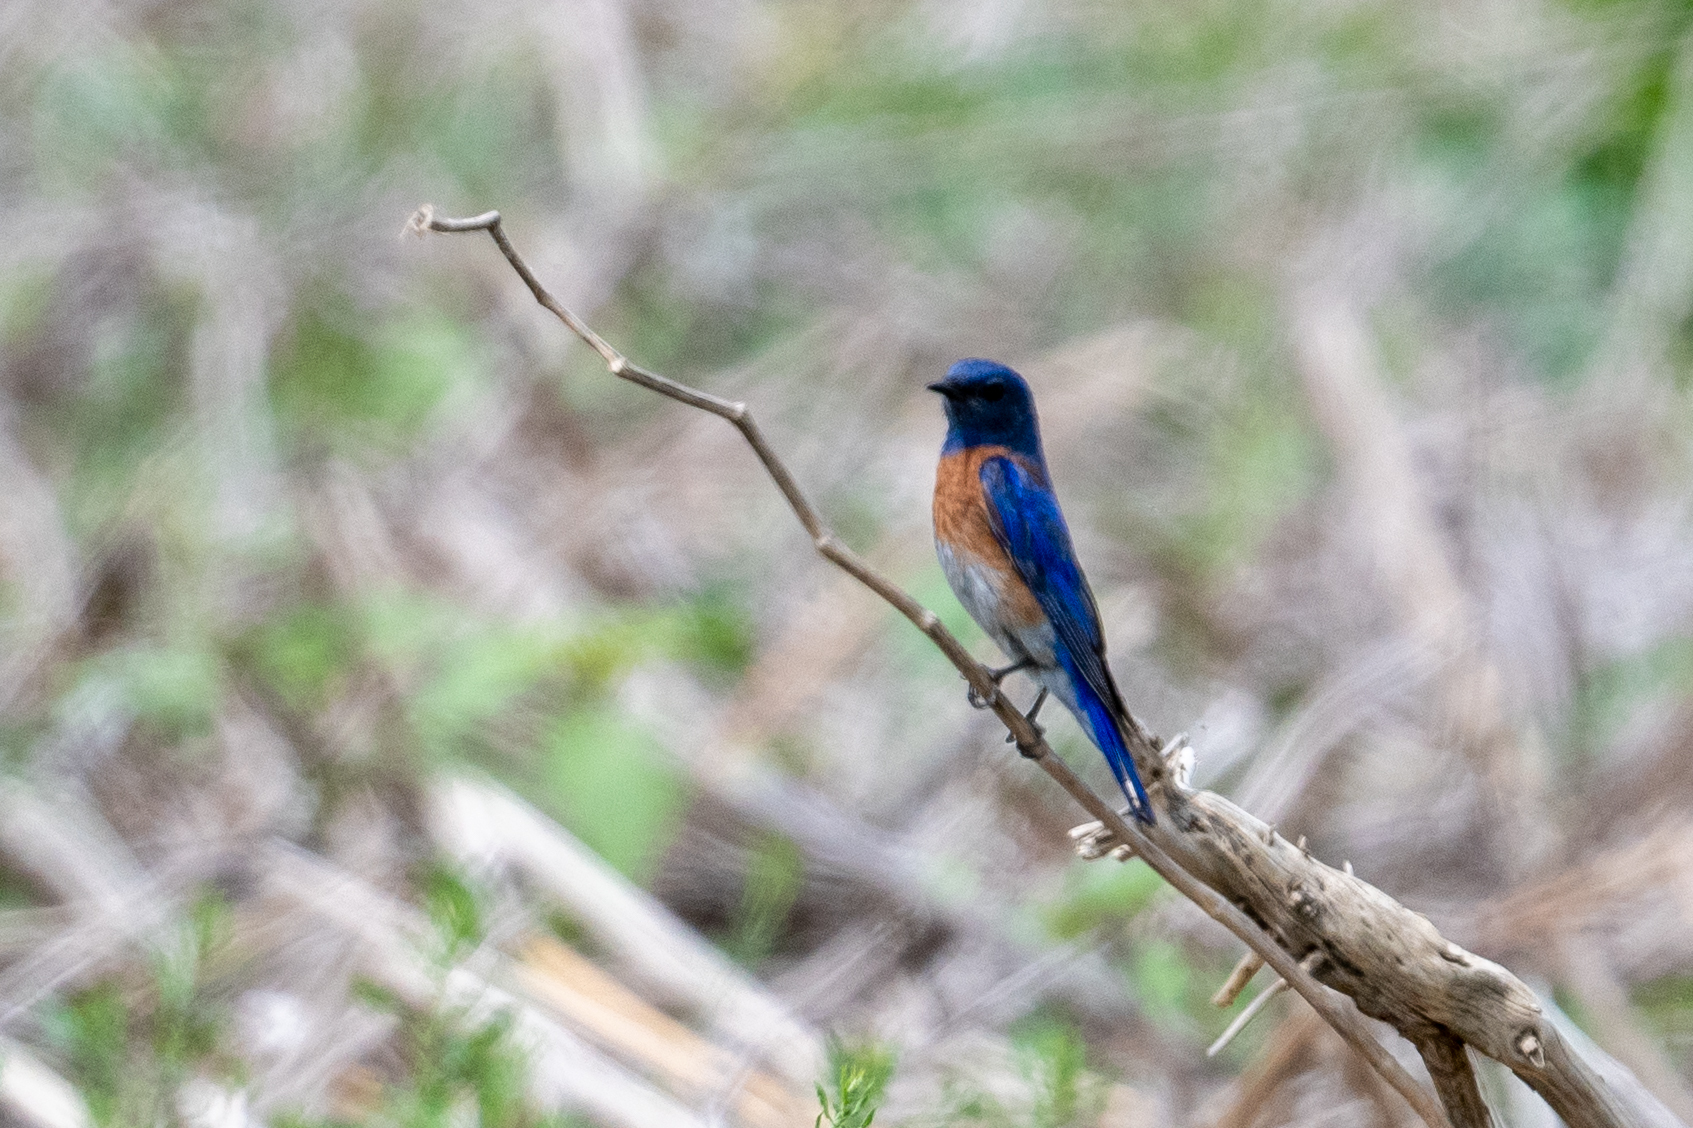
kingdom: Animalia
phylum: Chordata
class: Aves
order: Passeriformes
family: Turdidae
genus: Sialia
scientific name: Sialia mexicana
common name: Western bluebird
